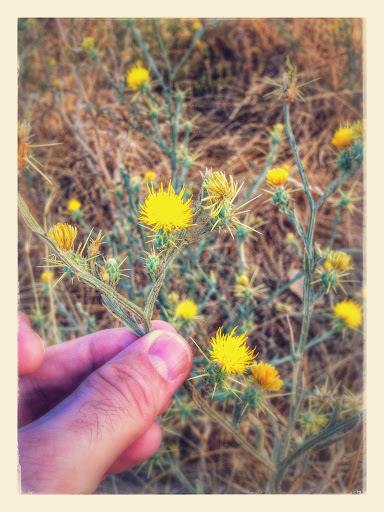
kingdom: Plantae
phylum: Tracheophyta
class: Magnoliopsida
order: Asterales
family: Asteraceae
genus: Centaurea
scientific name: Centaurea solstitialis
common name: Yellow star-thistle
